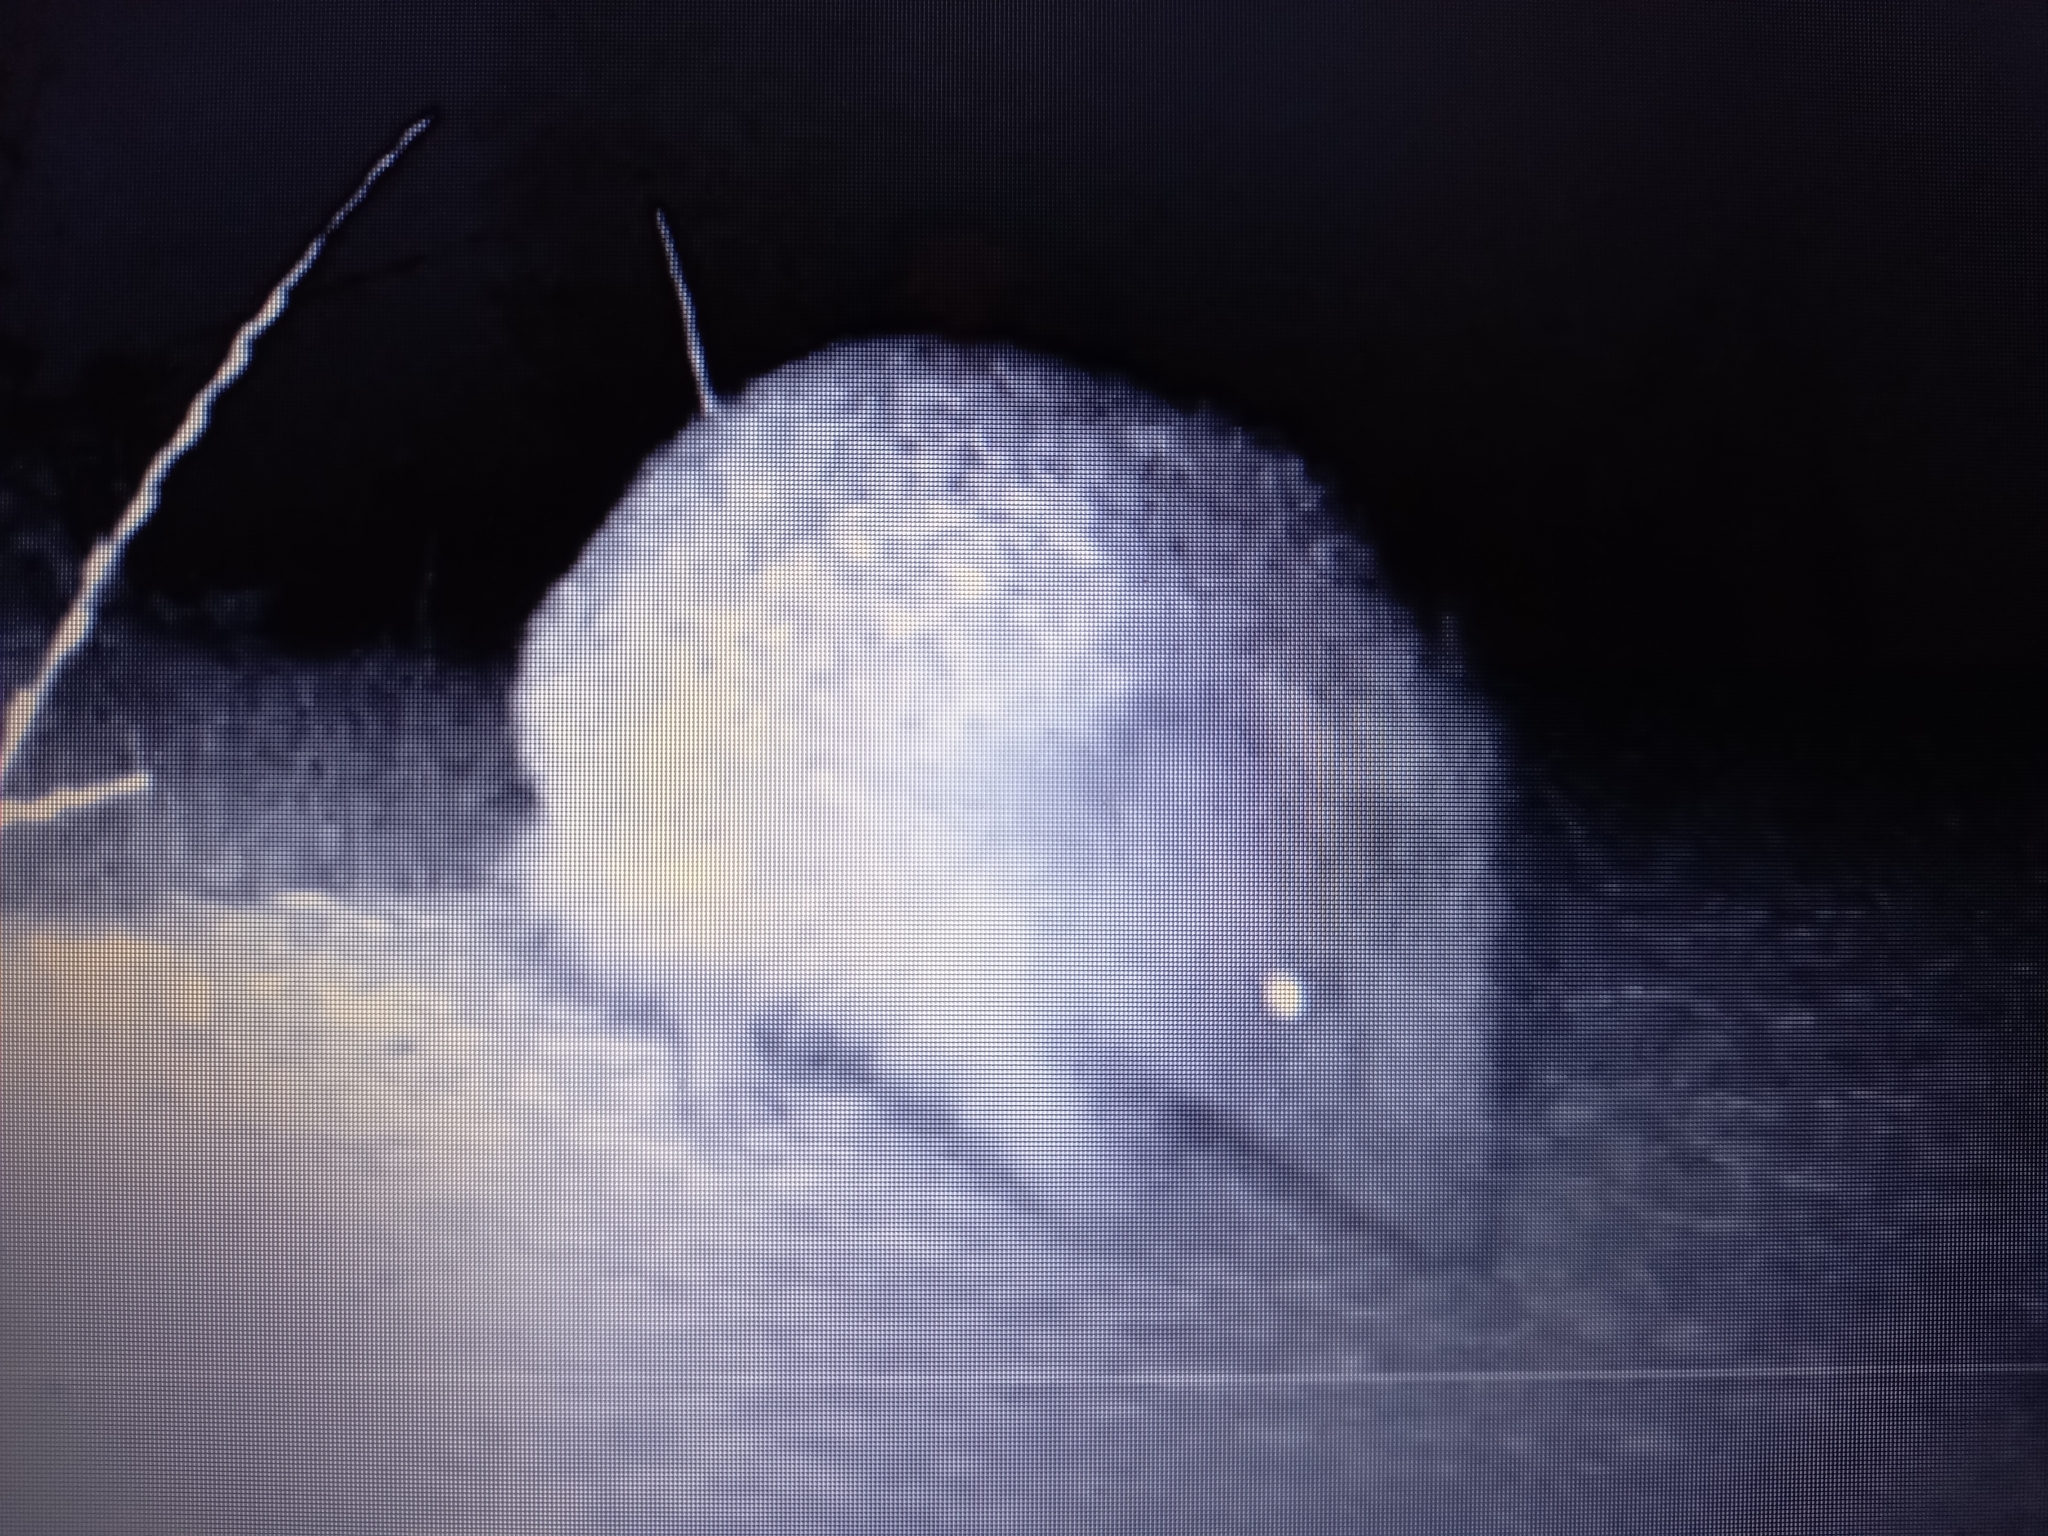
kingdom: Animalia
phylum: Chordata
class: Mammalia
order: Erinaceomorpha
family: Erinaceidae
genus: Erinaceus
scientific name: Erinaceus europaeus
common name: West european hedgehog
